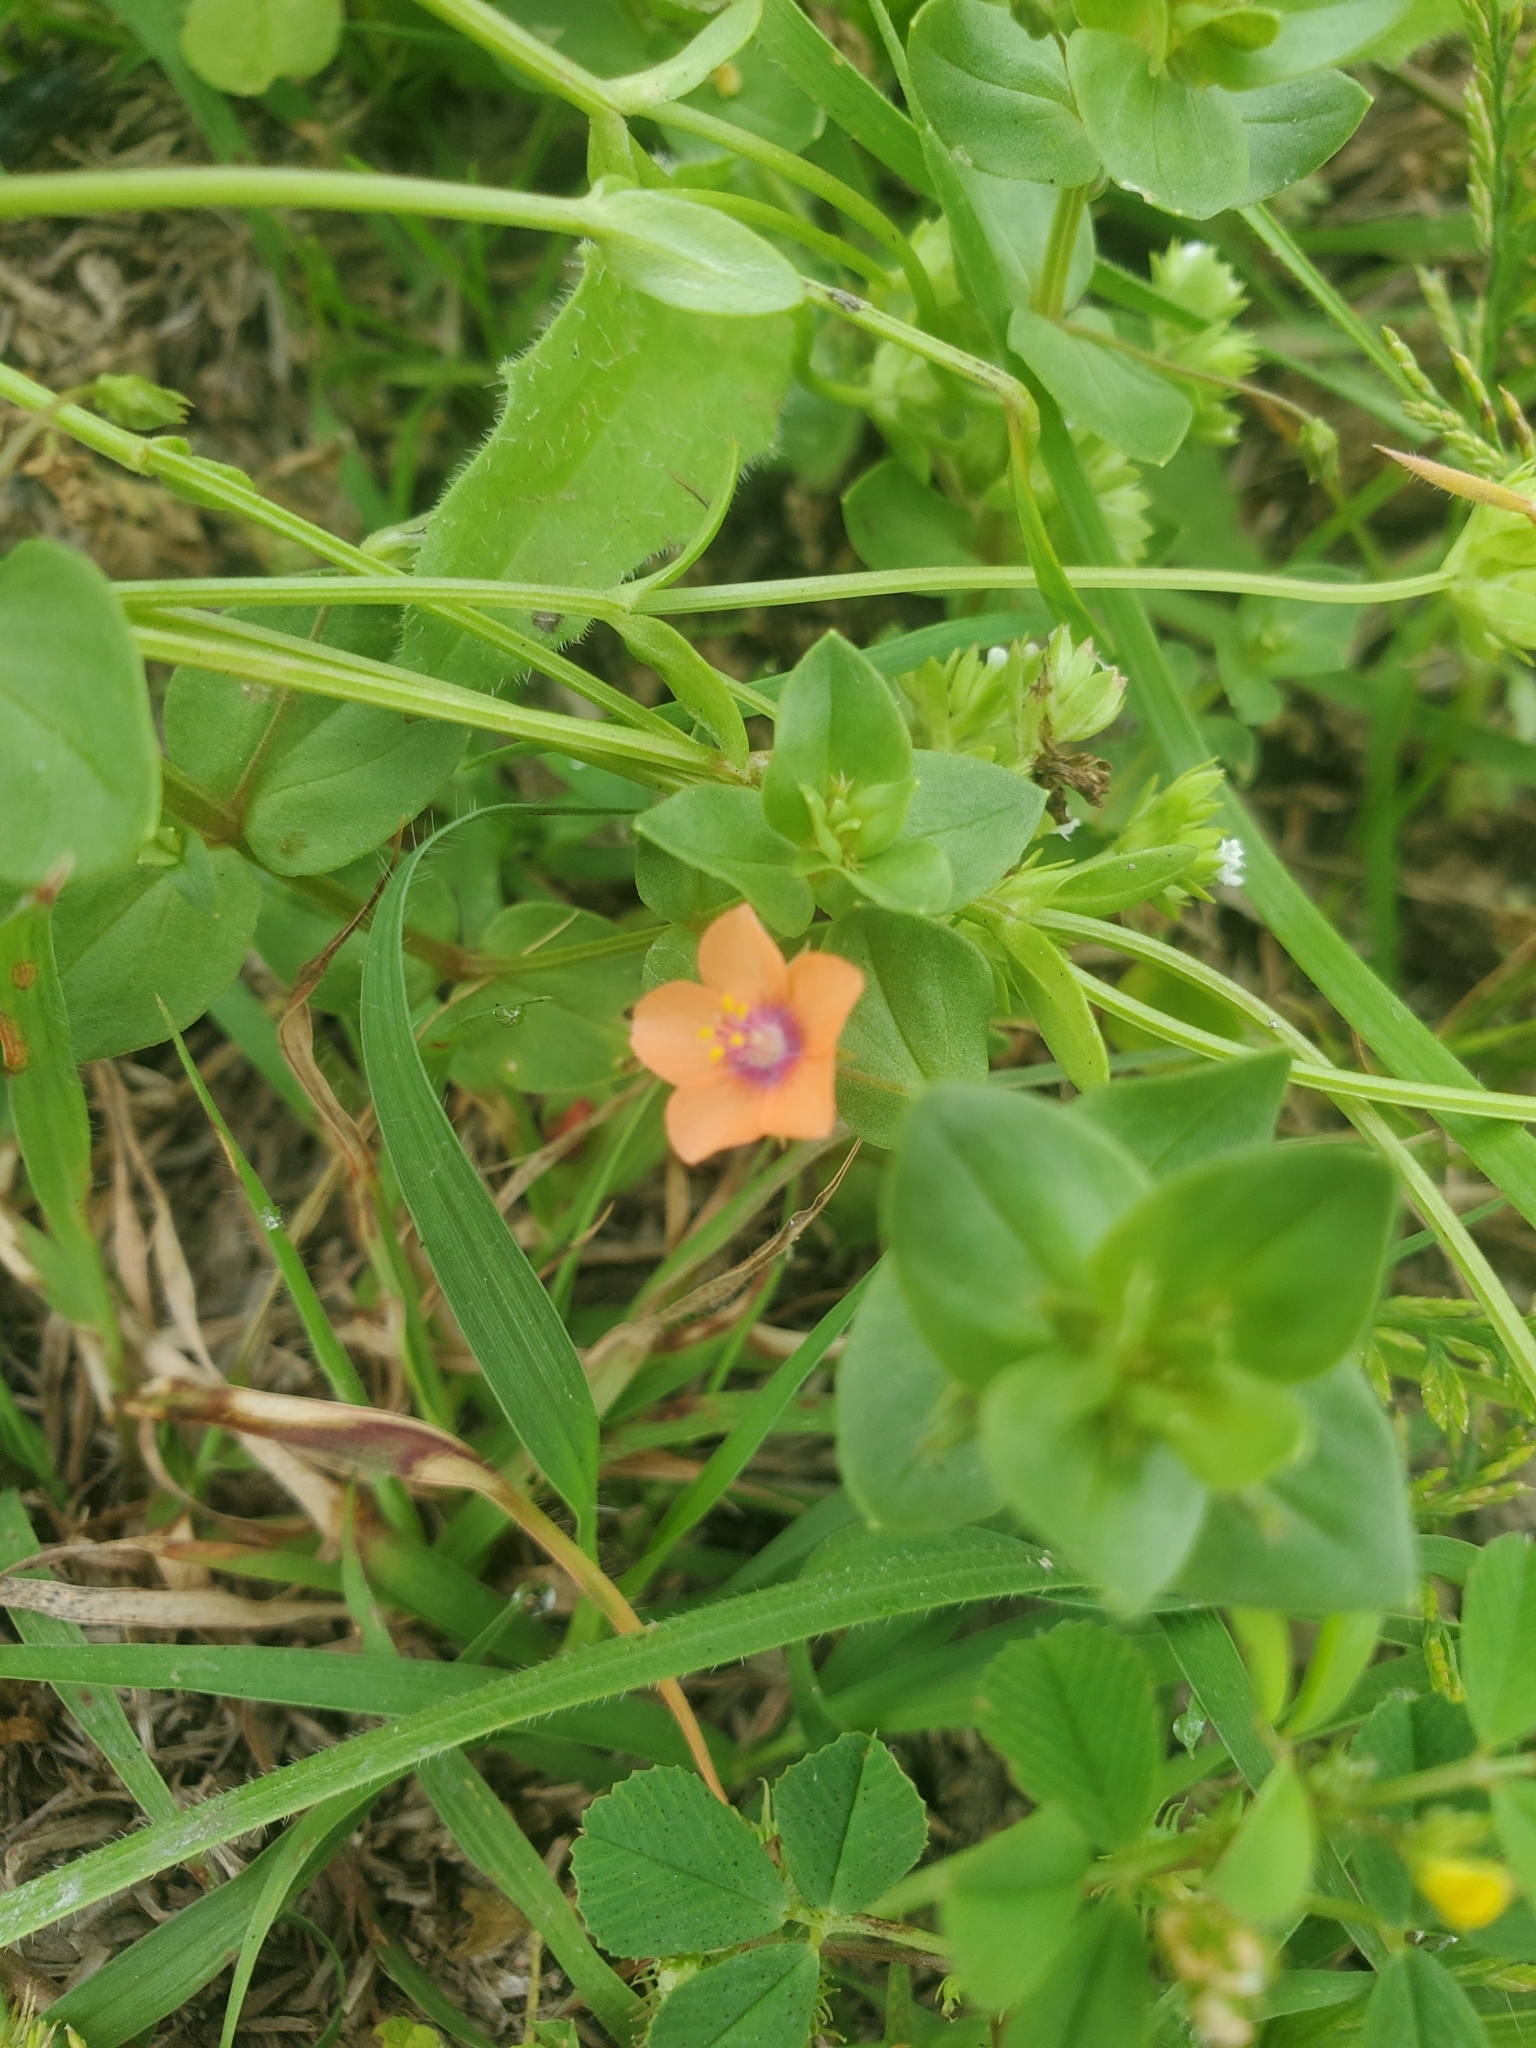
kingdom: Plantae
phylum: Tracheophyta
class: Magnoliopsida
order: Ericales
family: Primulaceae
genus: Lysimachia
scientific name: Lysimachia arvensis
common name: Scarlet pimpernel
